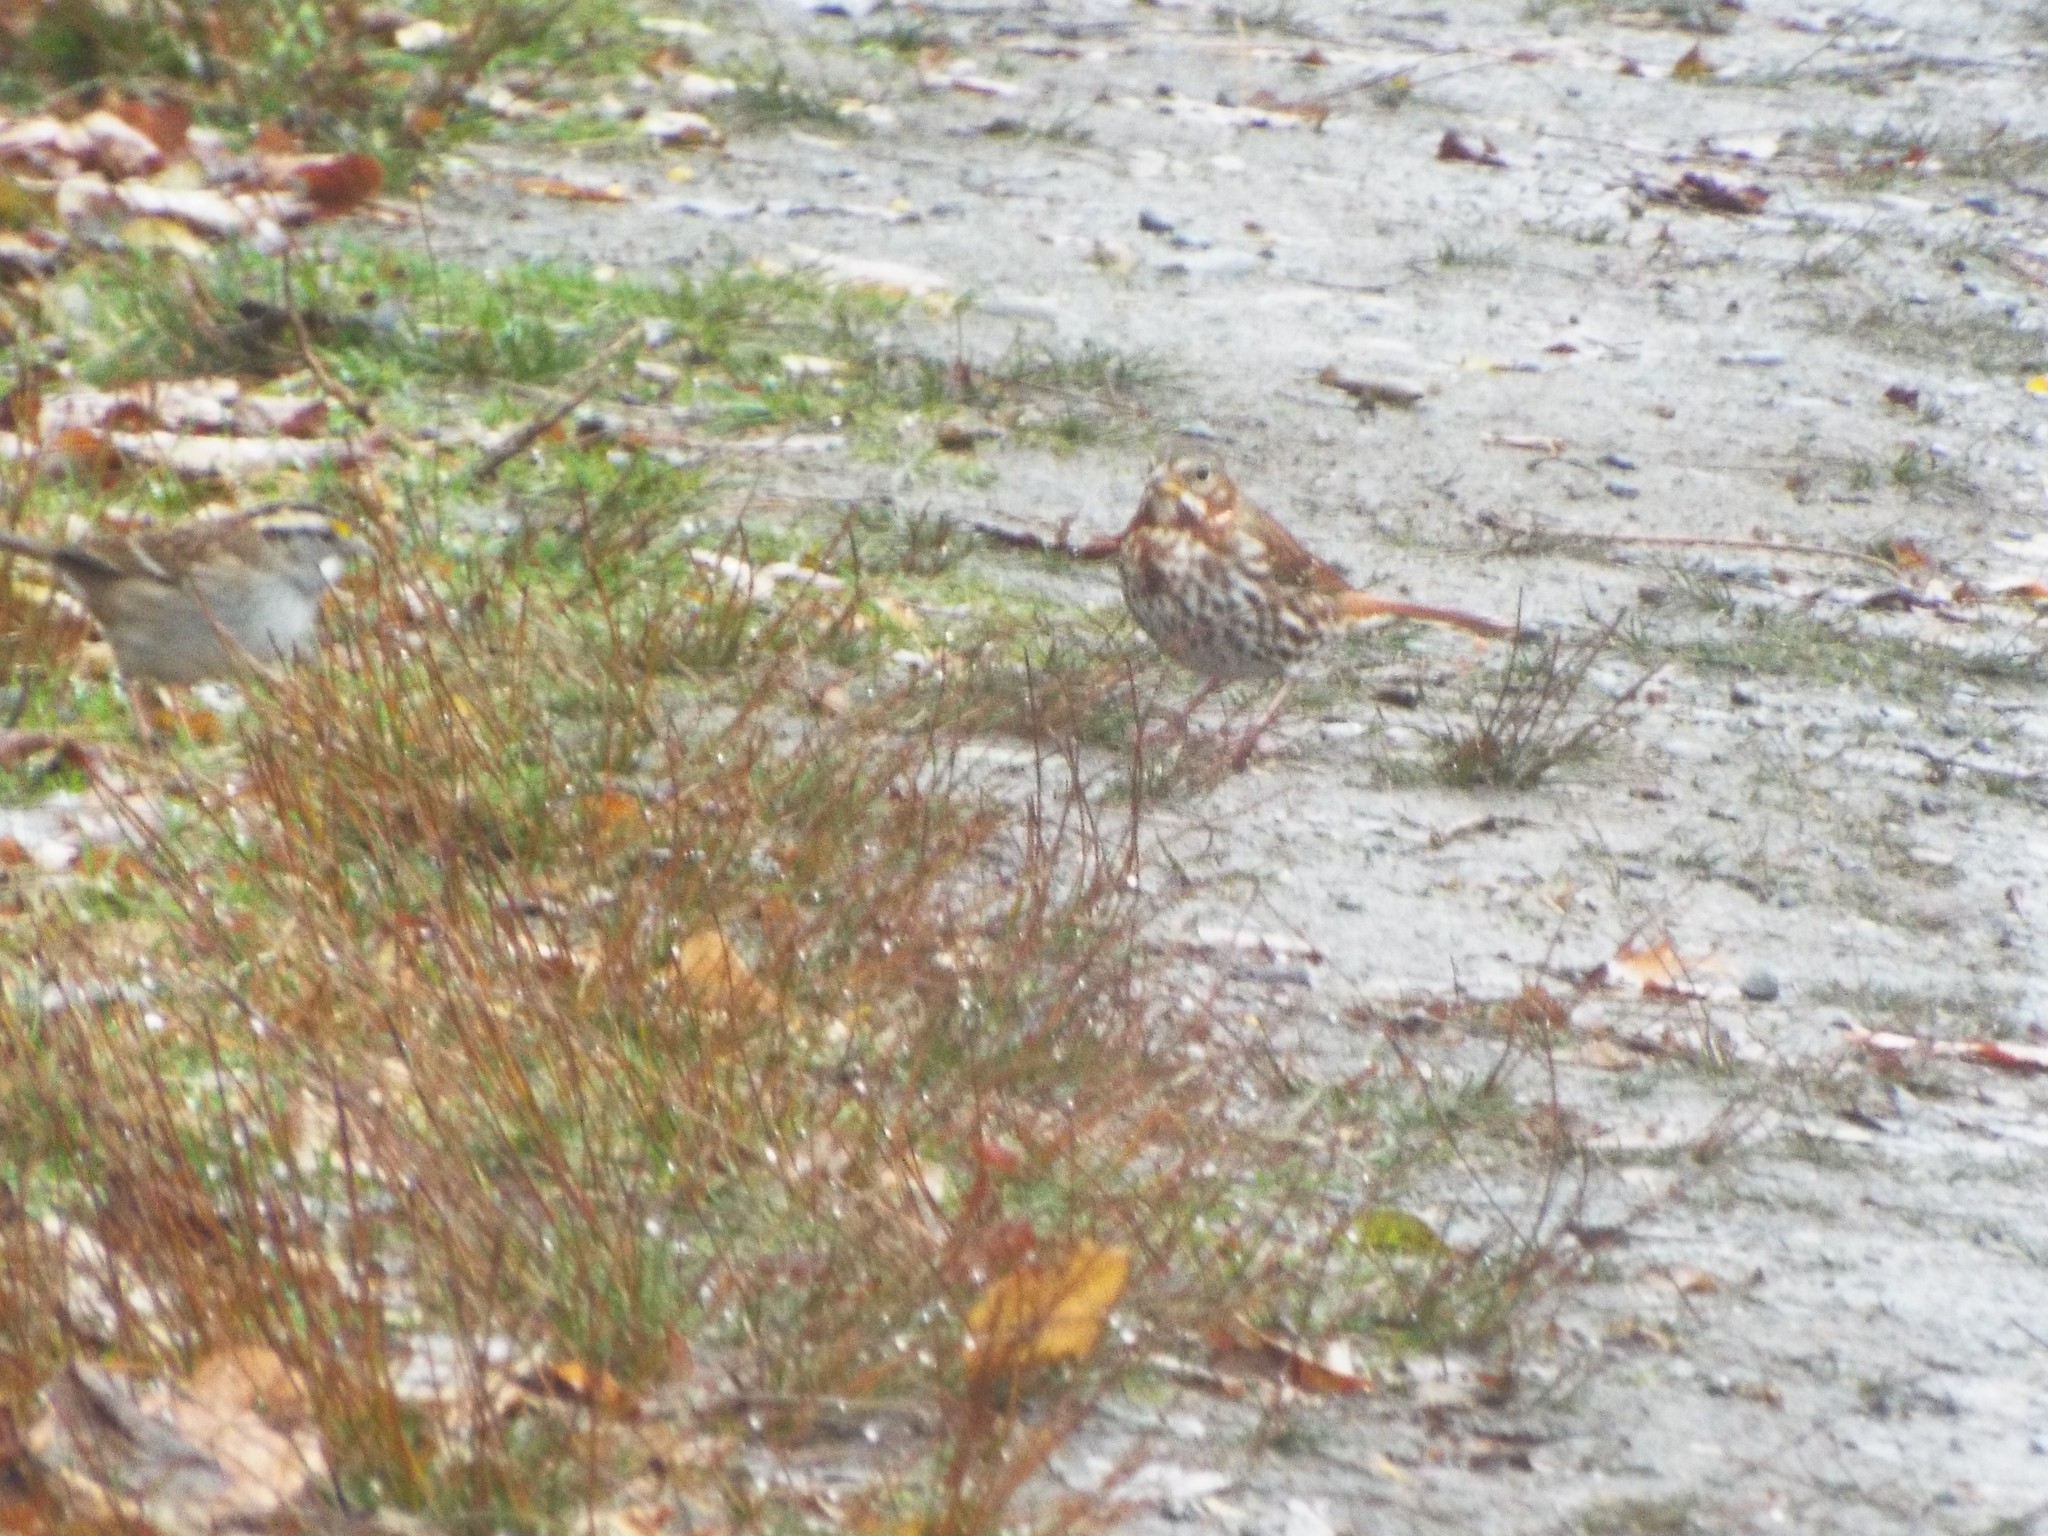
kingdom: Animalia
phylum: Chordata
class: Aves
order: Passeriformes
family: Passerellidae
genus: Passerella
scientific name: Passerella iliaca
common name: Fox sparrow
